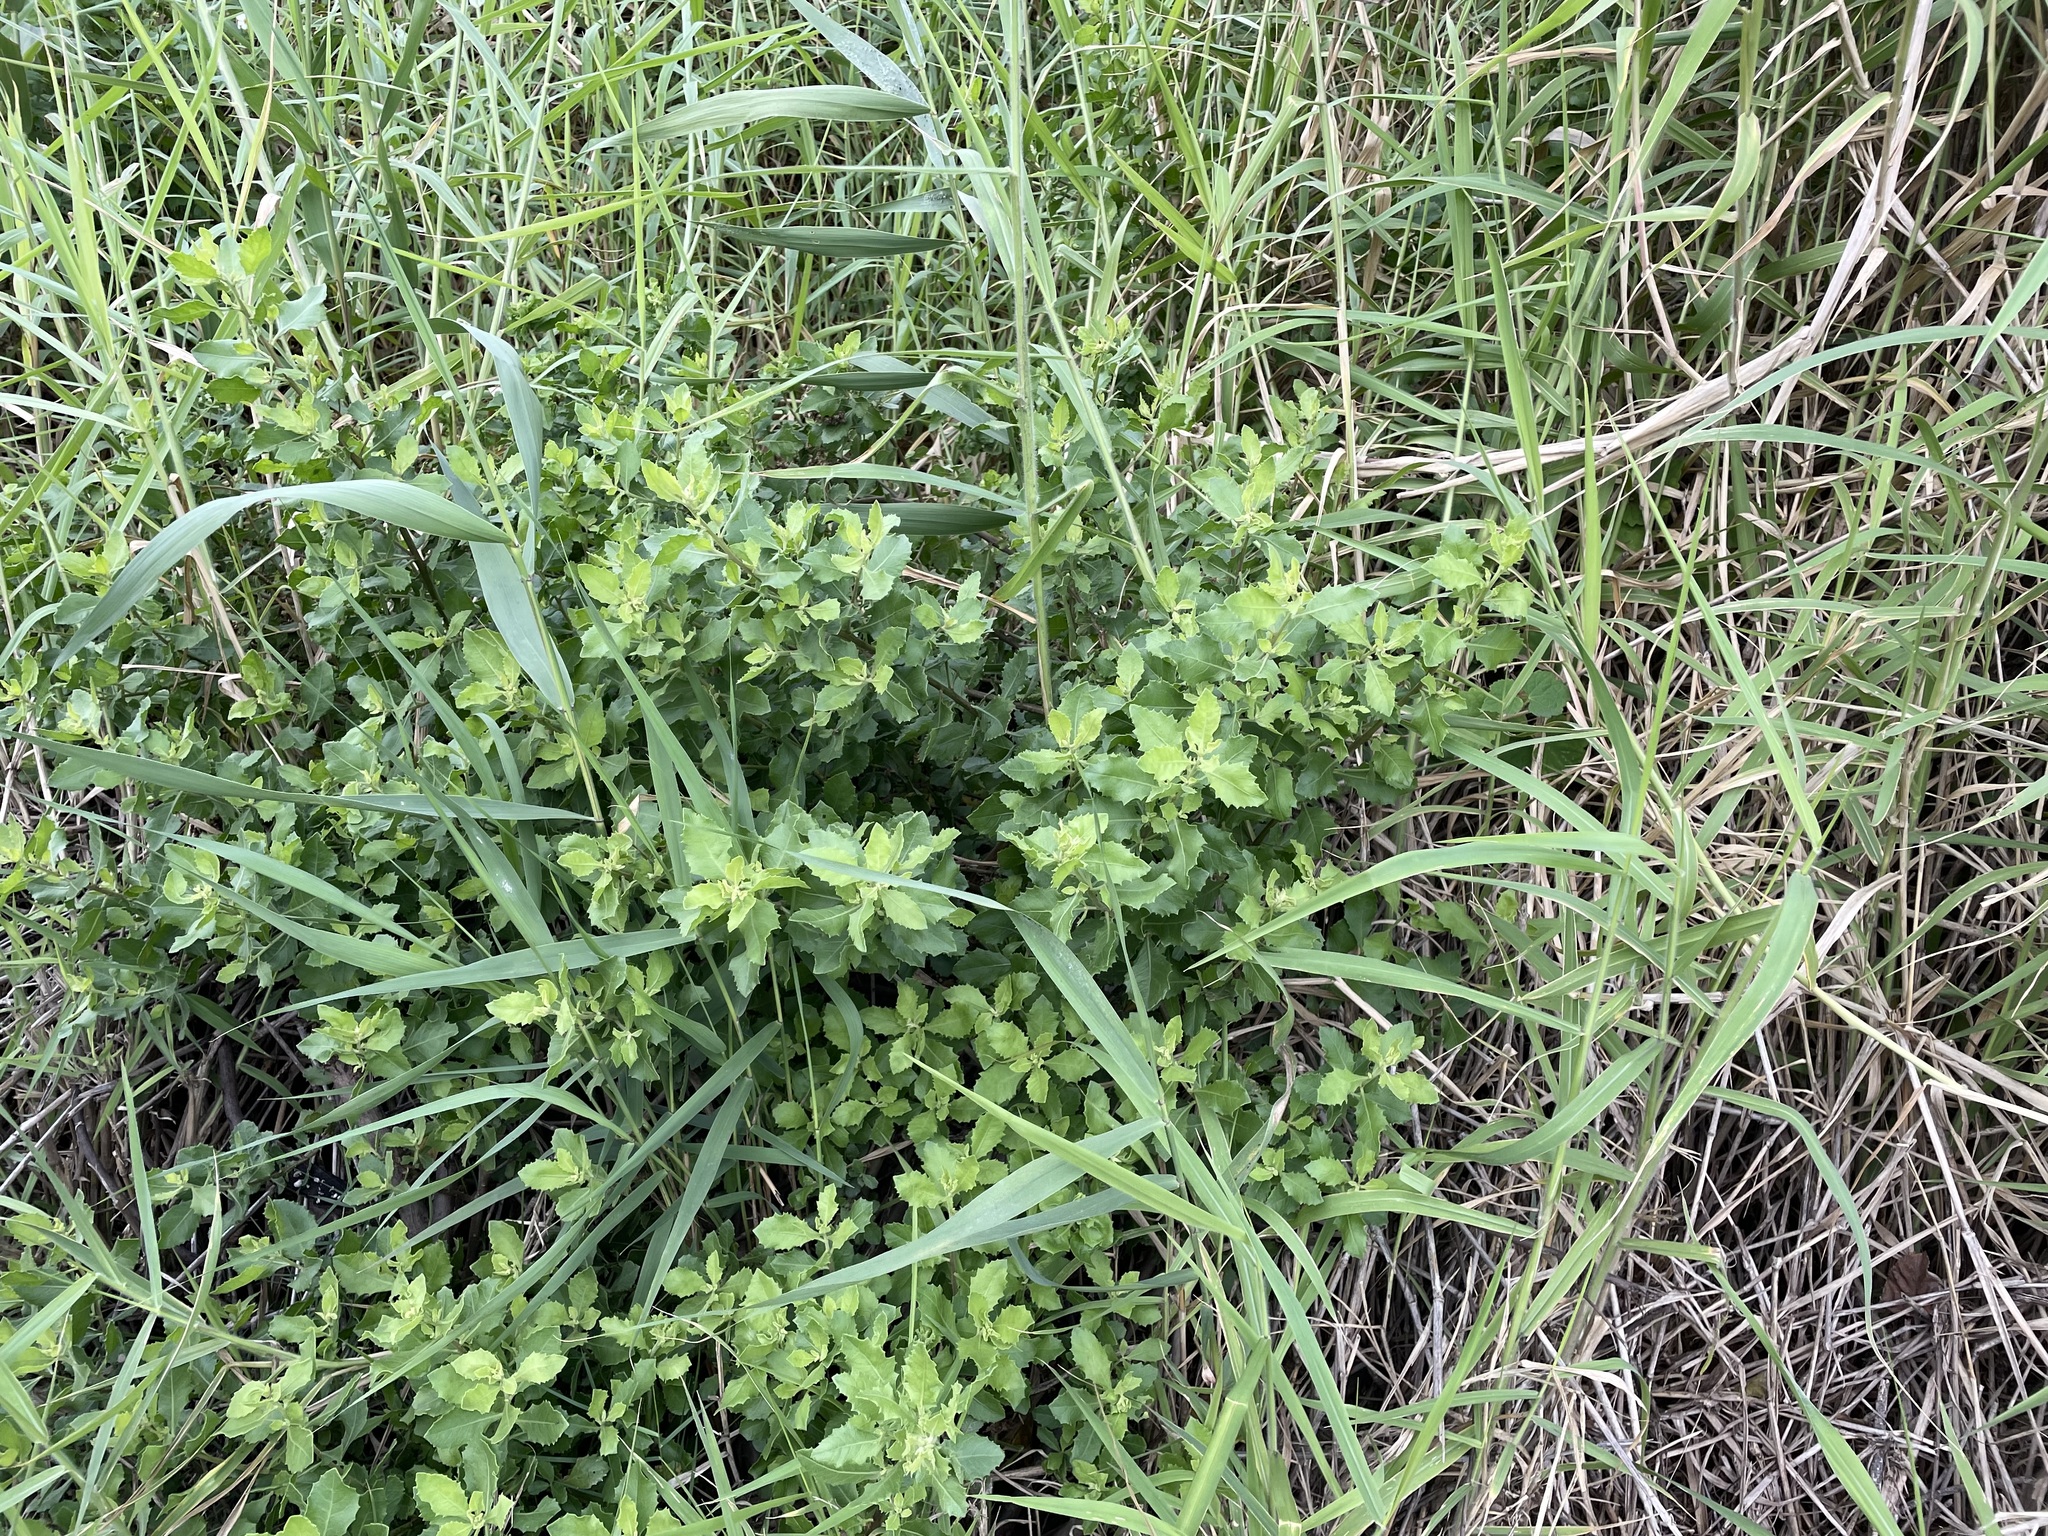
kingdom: Plantae
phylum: Tracheophyta
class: Magnoliopsida
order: Asterales
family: Asteraceae
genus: Pluchea
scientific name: Pluchea indica
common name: Indian fleabane
